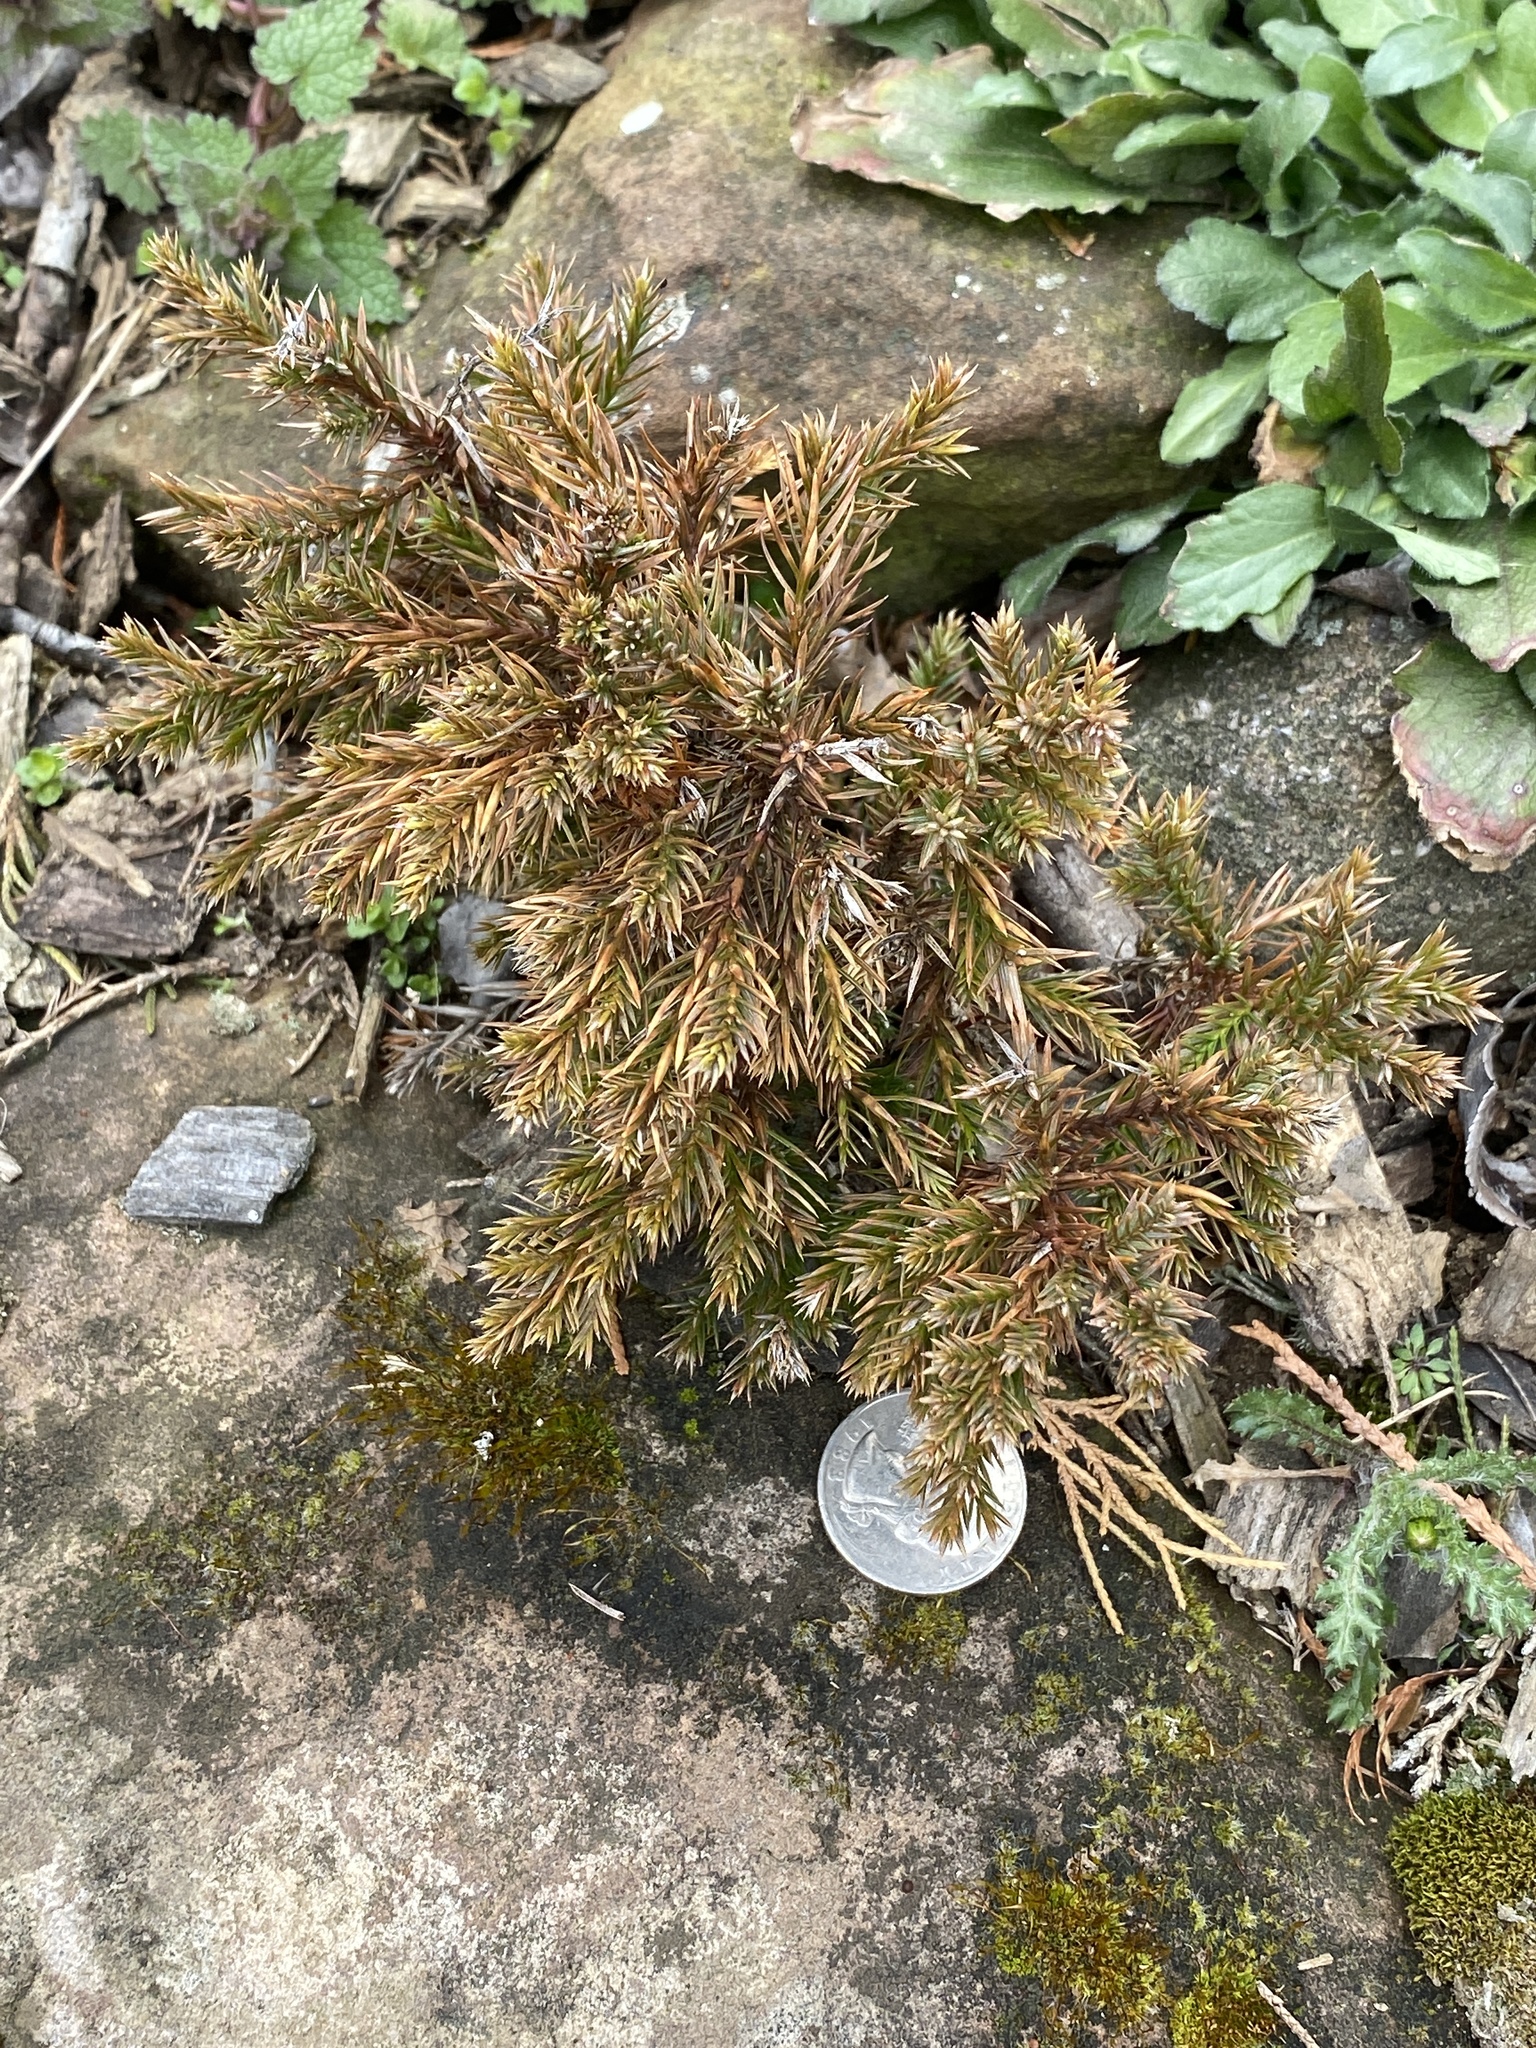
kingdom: Plantae
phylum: Tracheophyta
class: Pinopsida
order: Pinales
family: Cupressaceae
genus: Juniperus
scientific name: Juniperus virginiana
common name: Red juniper
